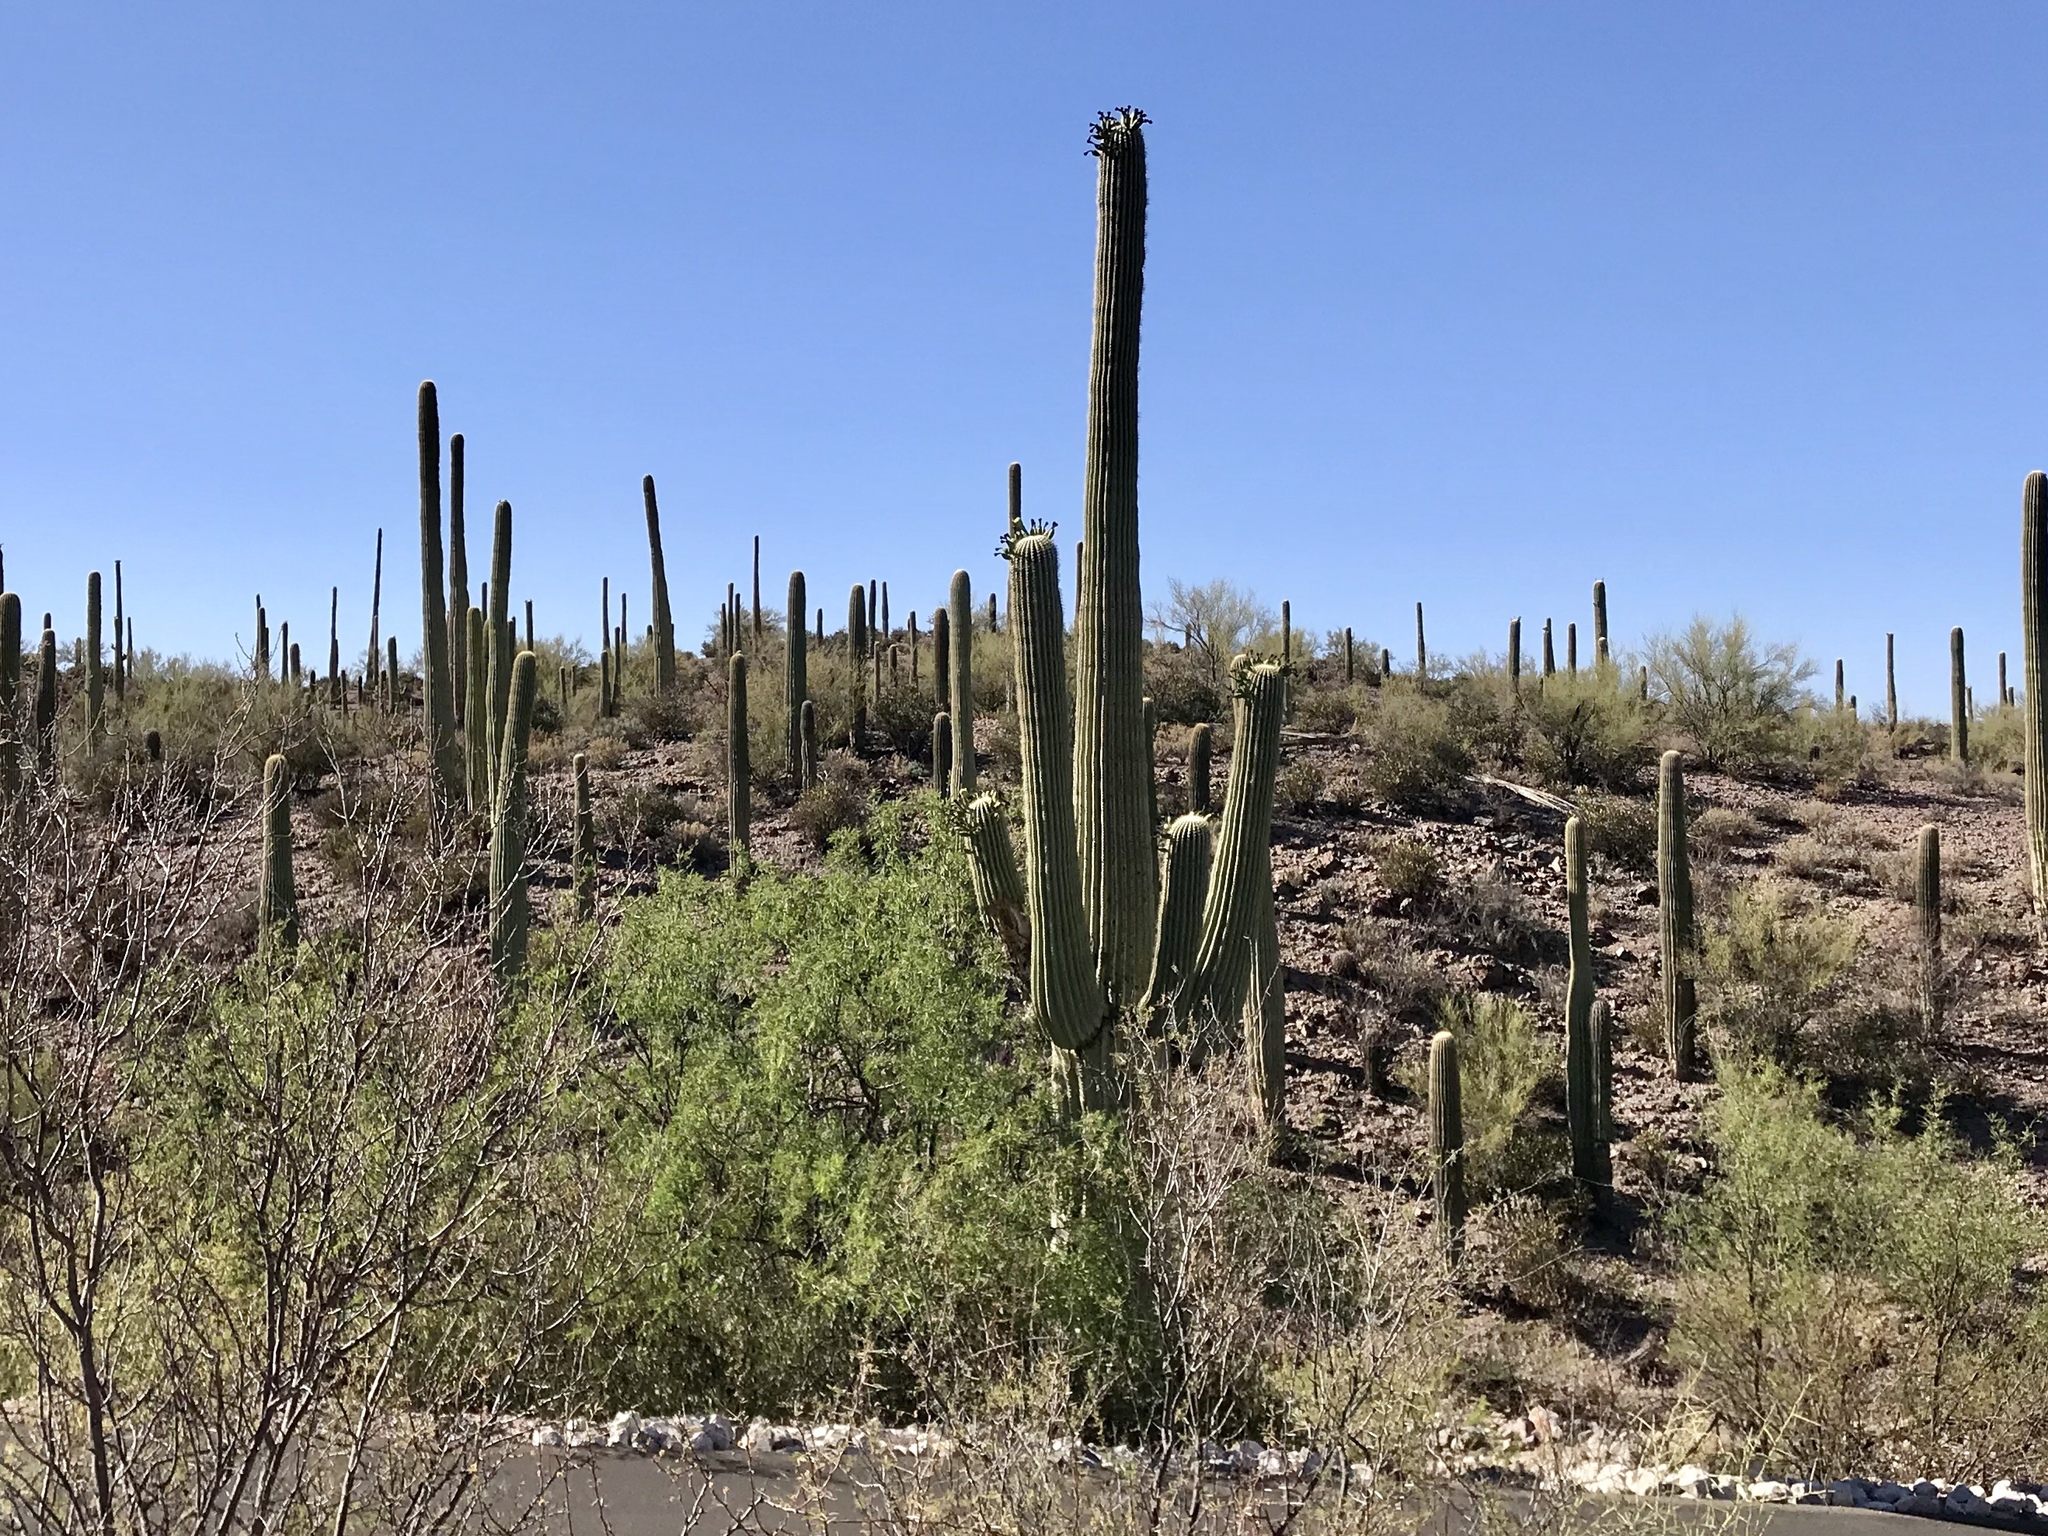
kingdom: Plantae
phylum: Tracheophyta
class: Magnoliopsida
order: Caryophyllales
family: Cactaceae
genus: Carnegiea
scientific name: Carnegiea gigantea
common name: Saguaro
